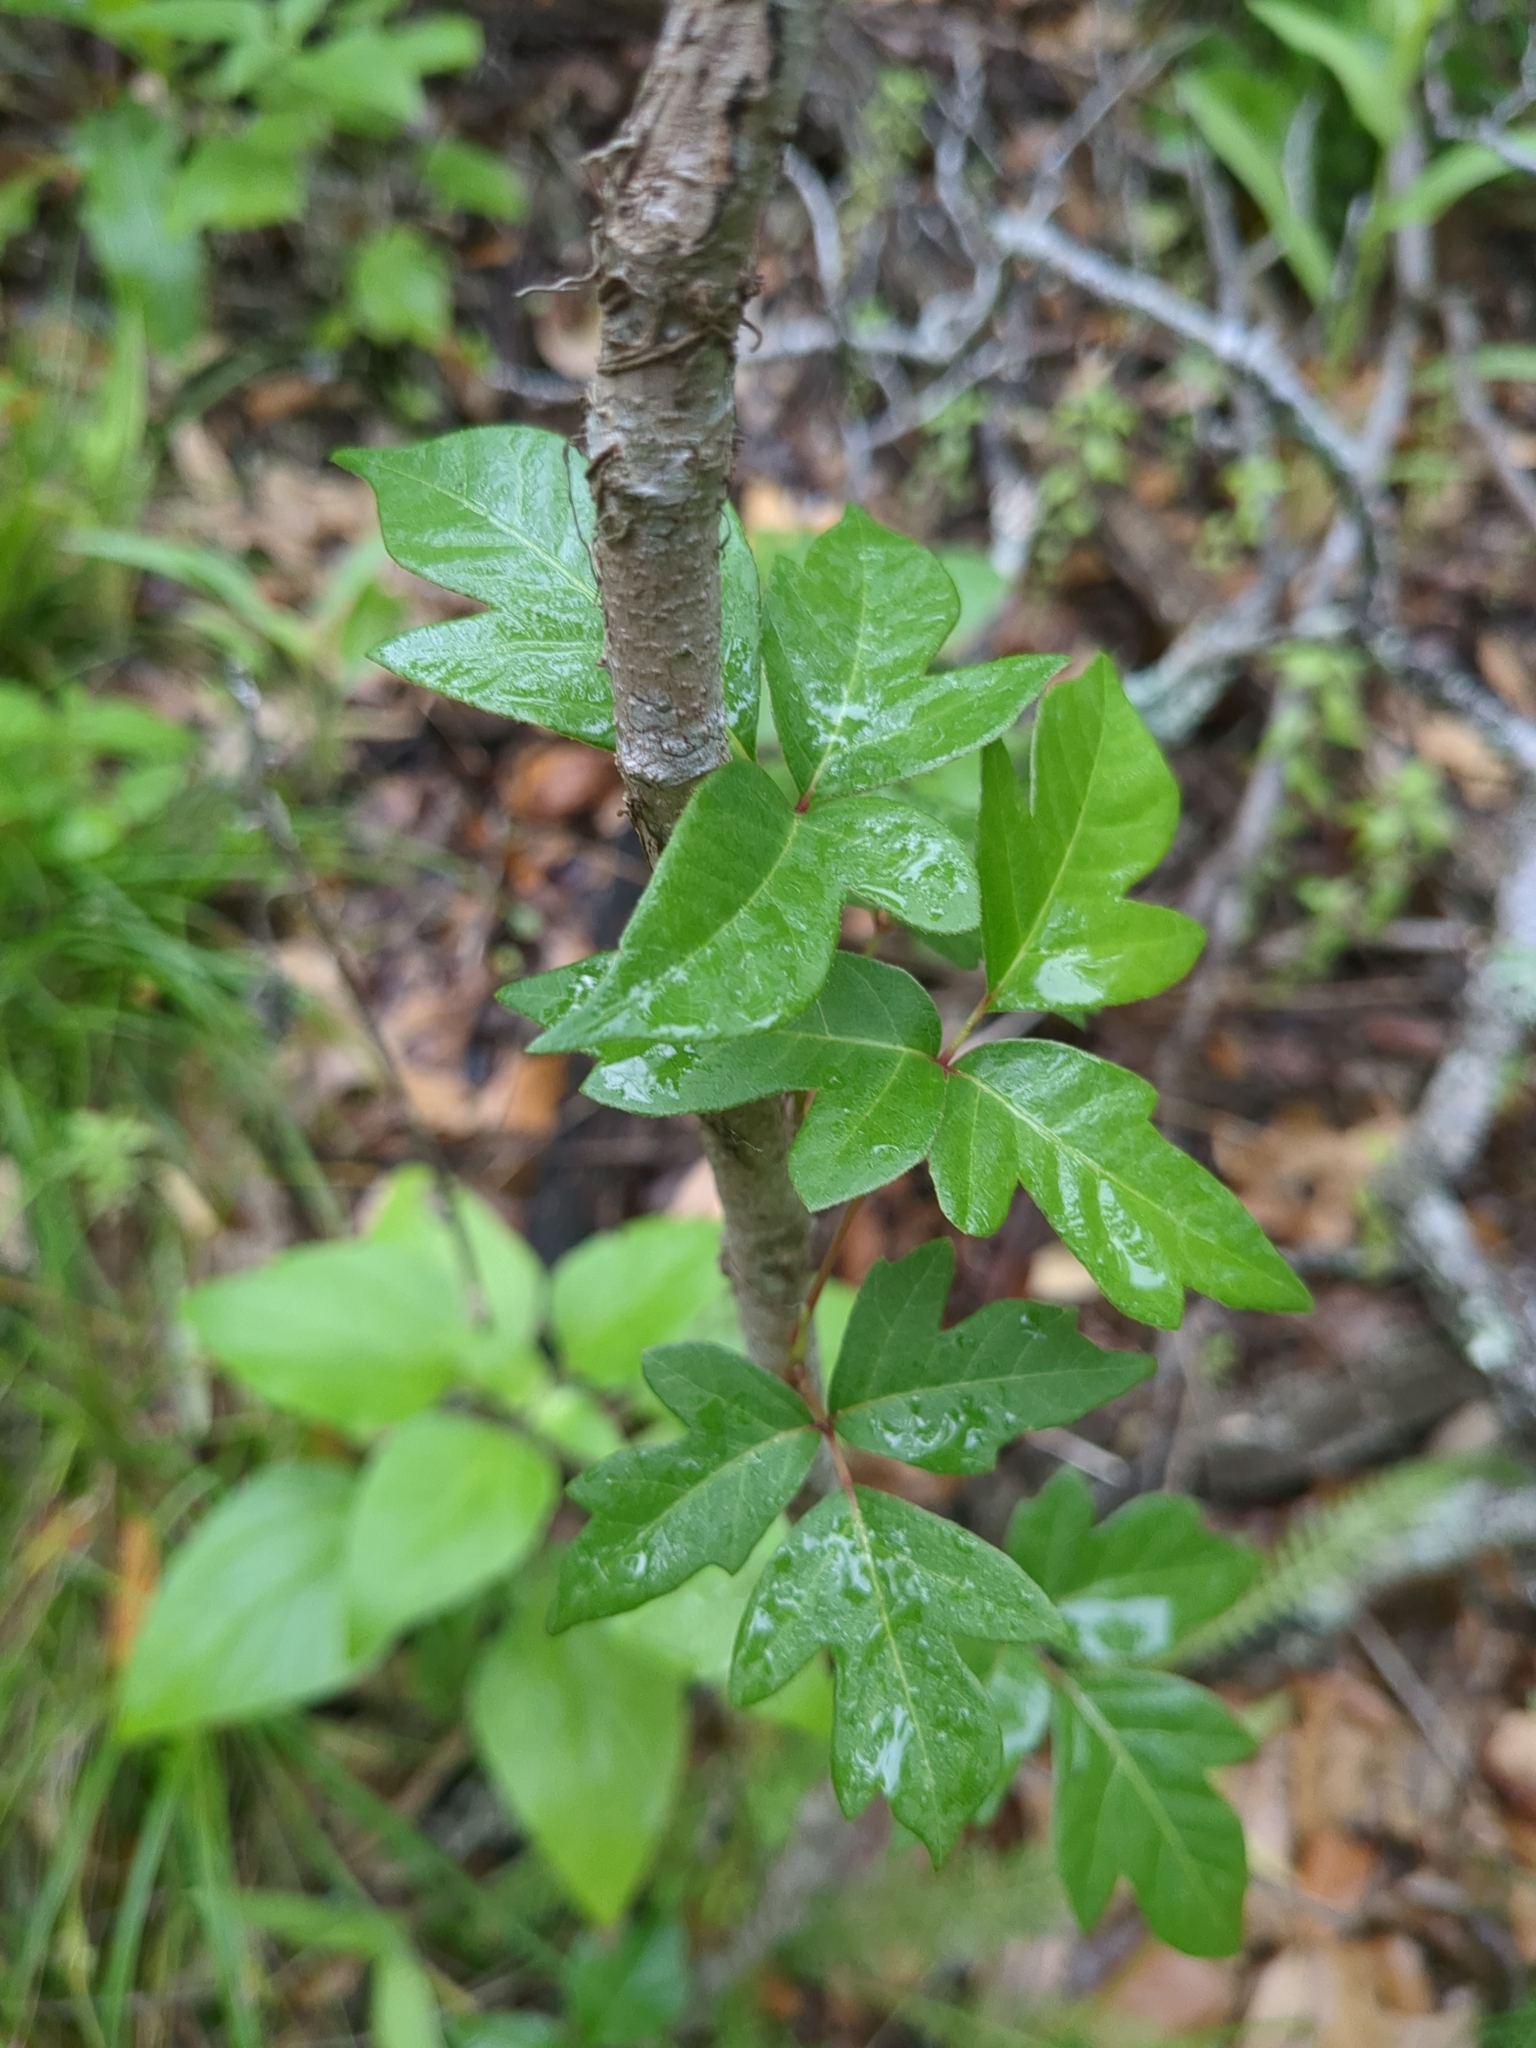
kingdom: Plantae
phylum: Tracheophyta
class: Magnoliopsida
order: Sapindales
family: Anacardiaceae
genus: Toxicodendron
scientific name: Toxicodendron radicans
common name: Poison ivy
